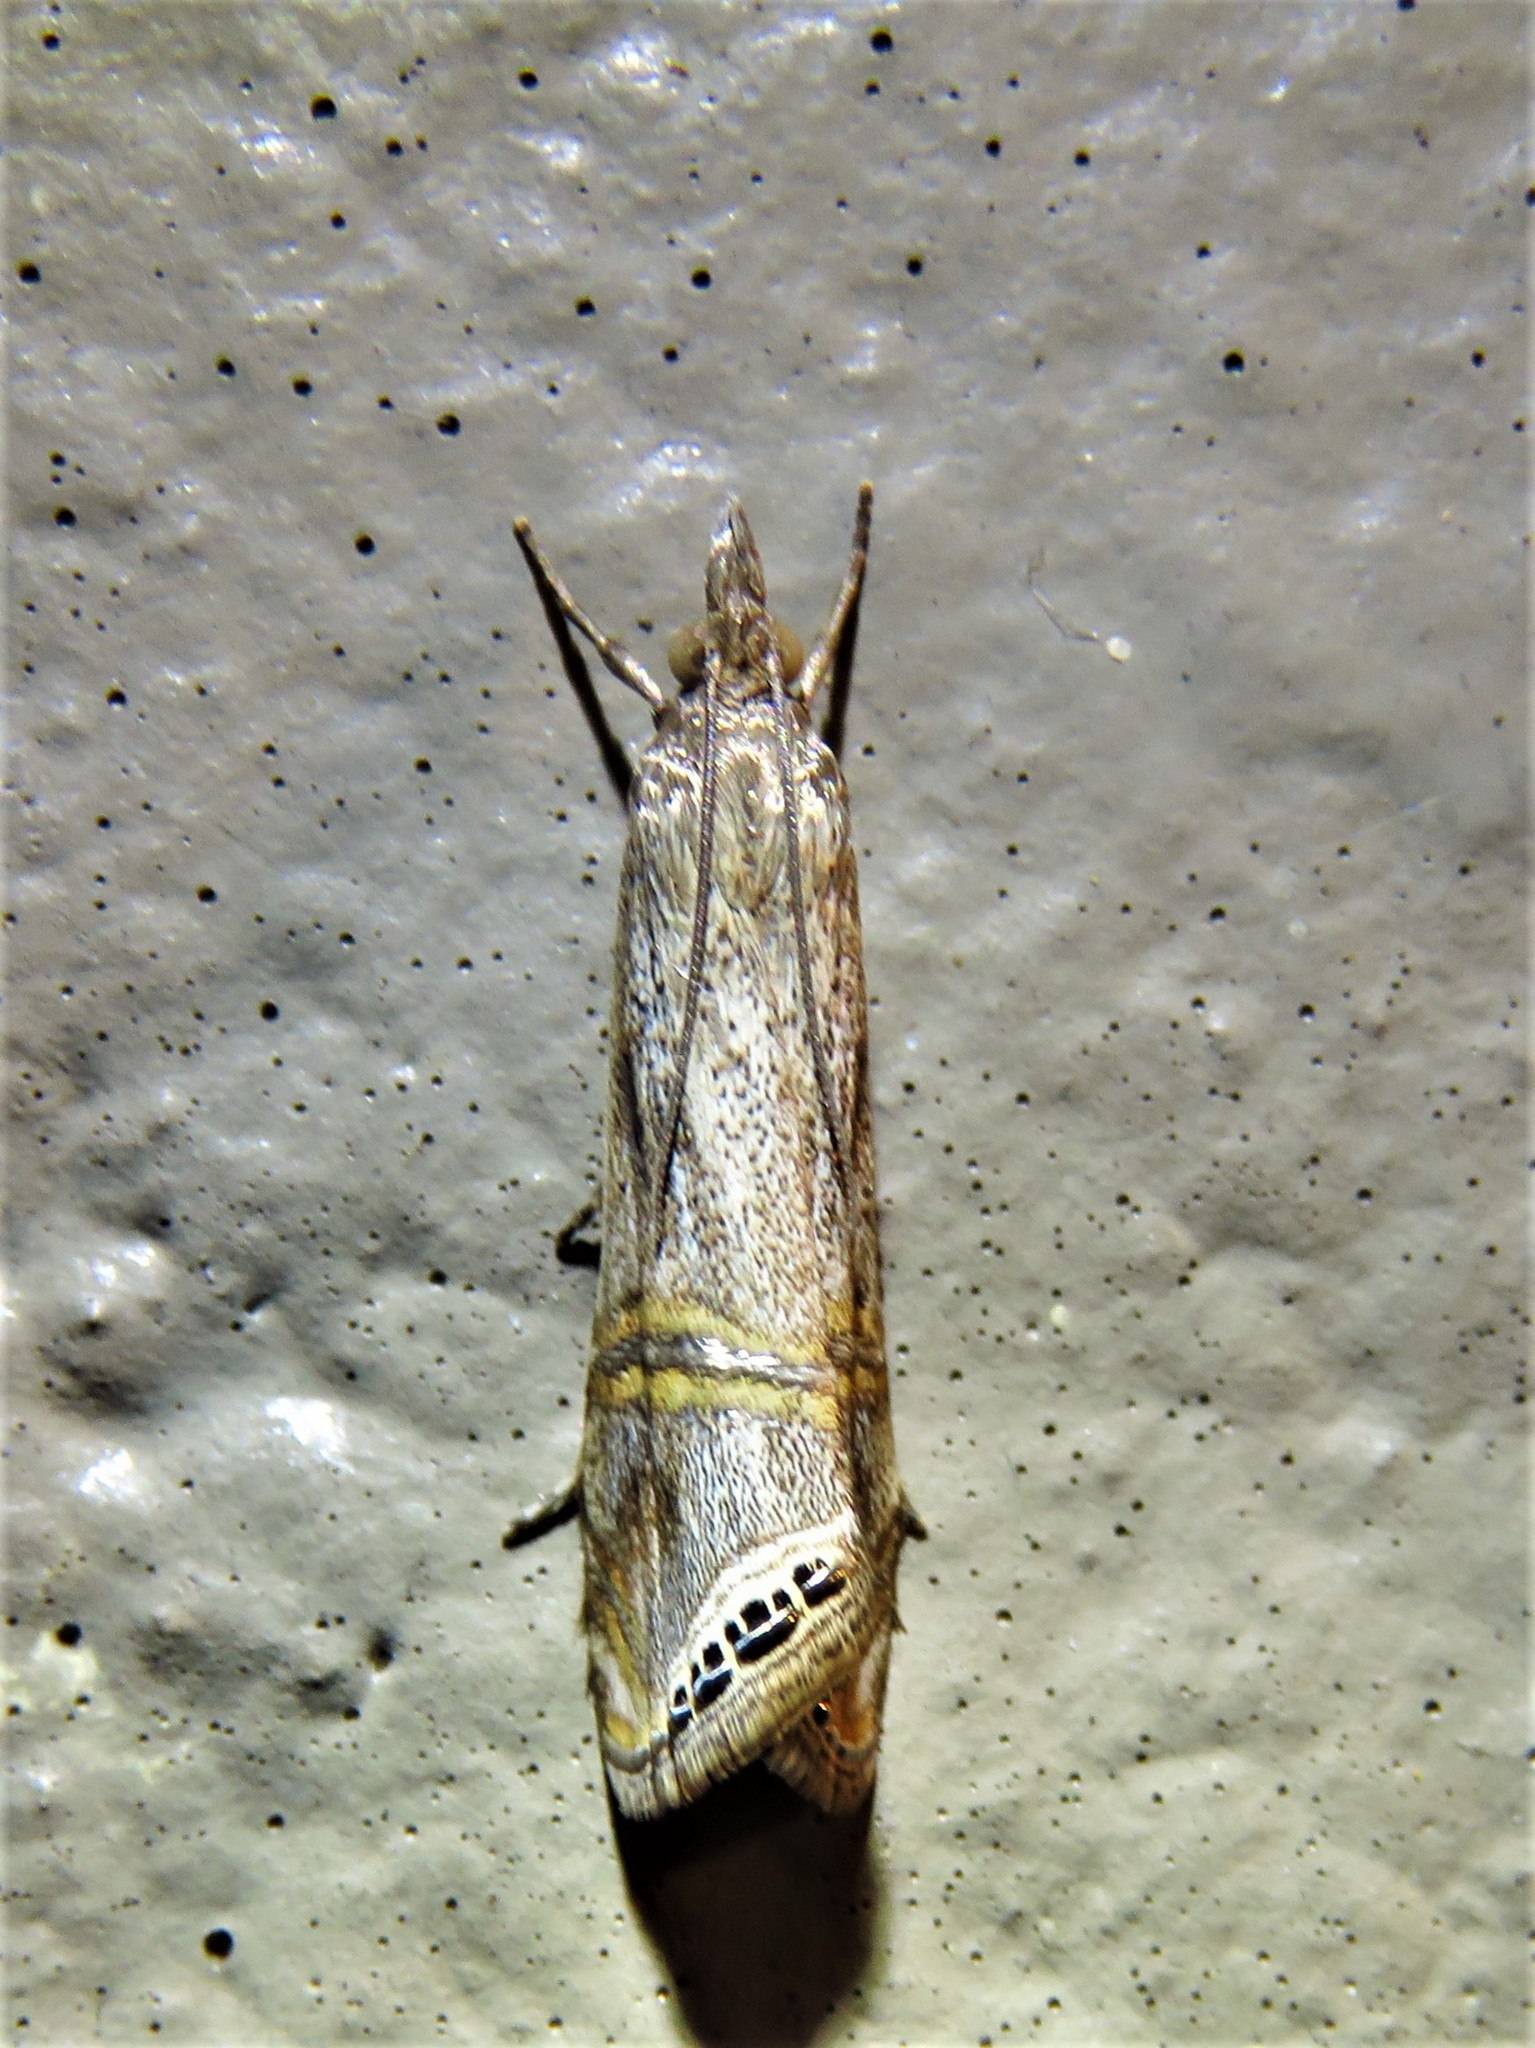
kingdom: Animalia
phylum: Arthropoda
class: Insecta
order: Lepidoptera
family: Crambidae
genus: Euchromius
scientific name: Euchromius ocellea
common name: Necklace veneer moth
